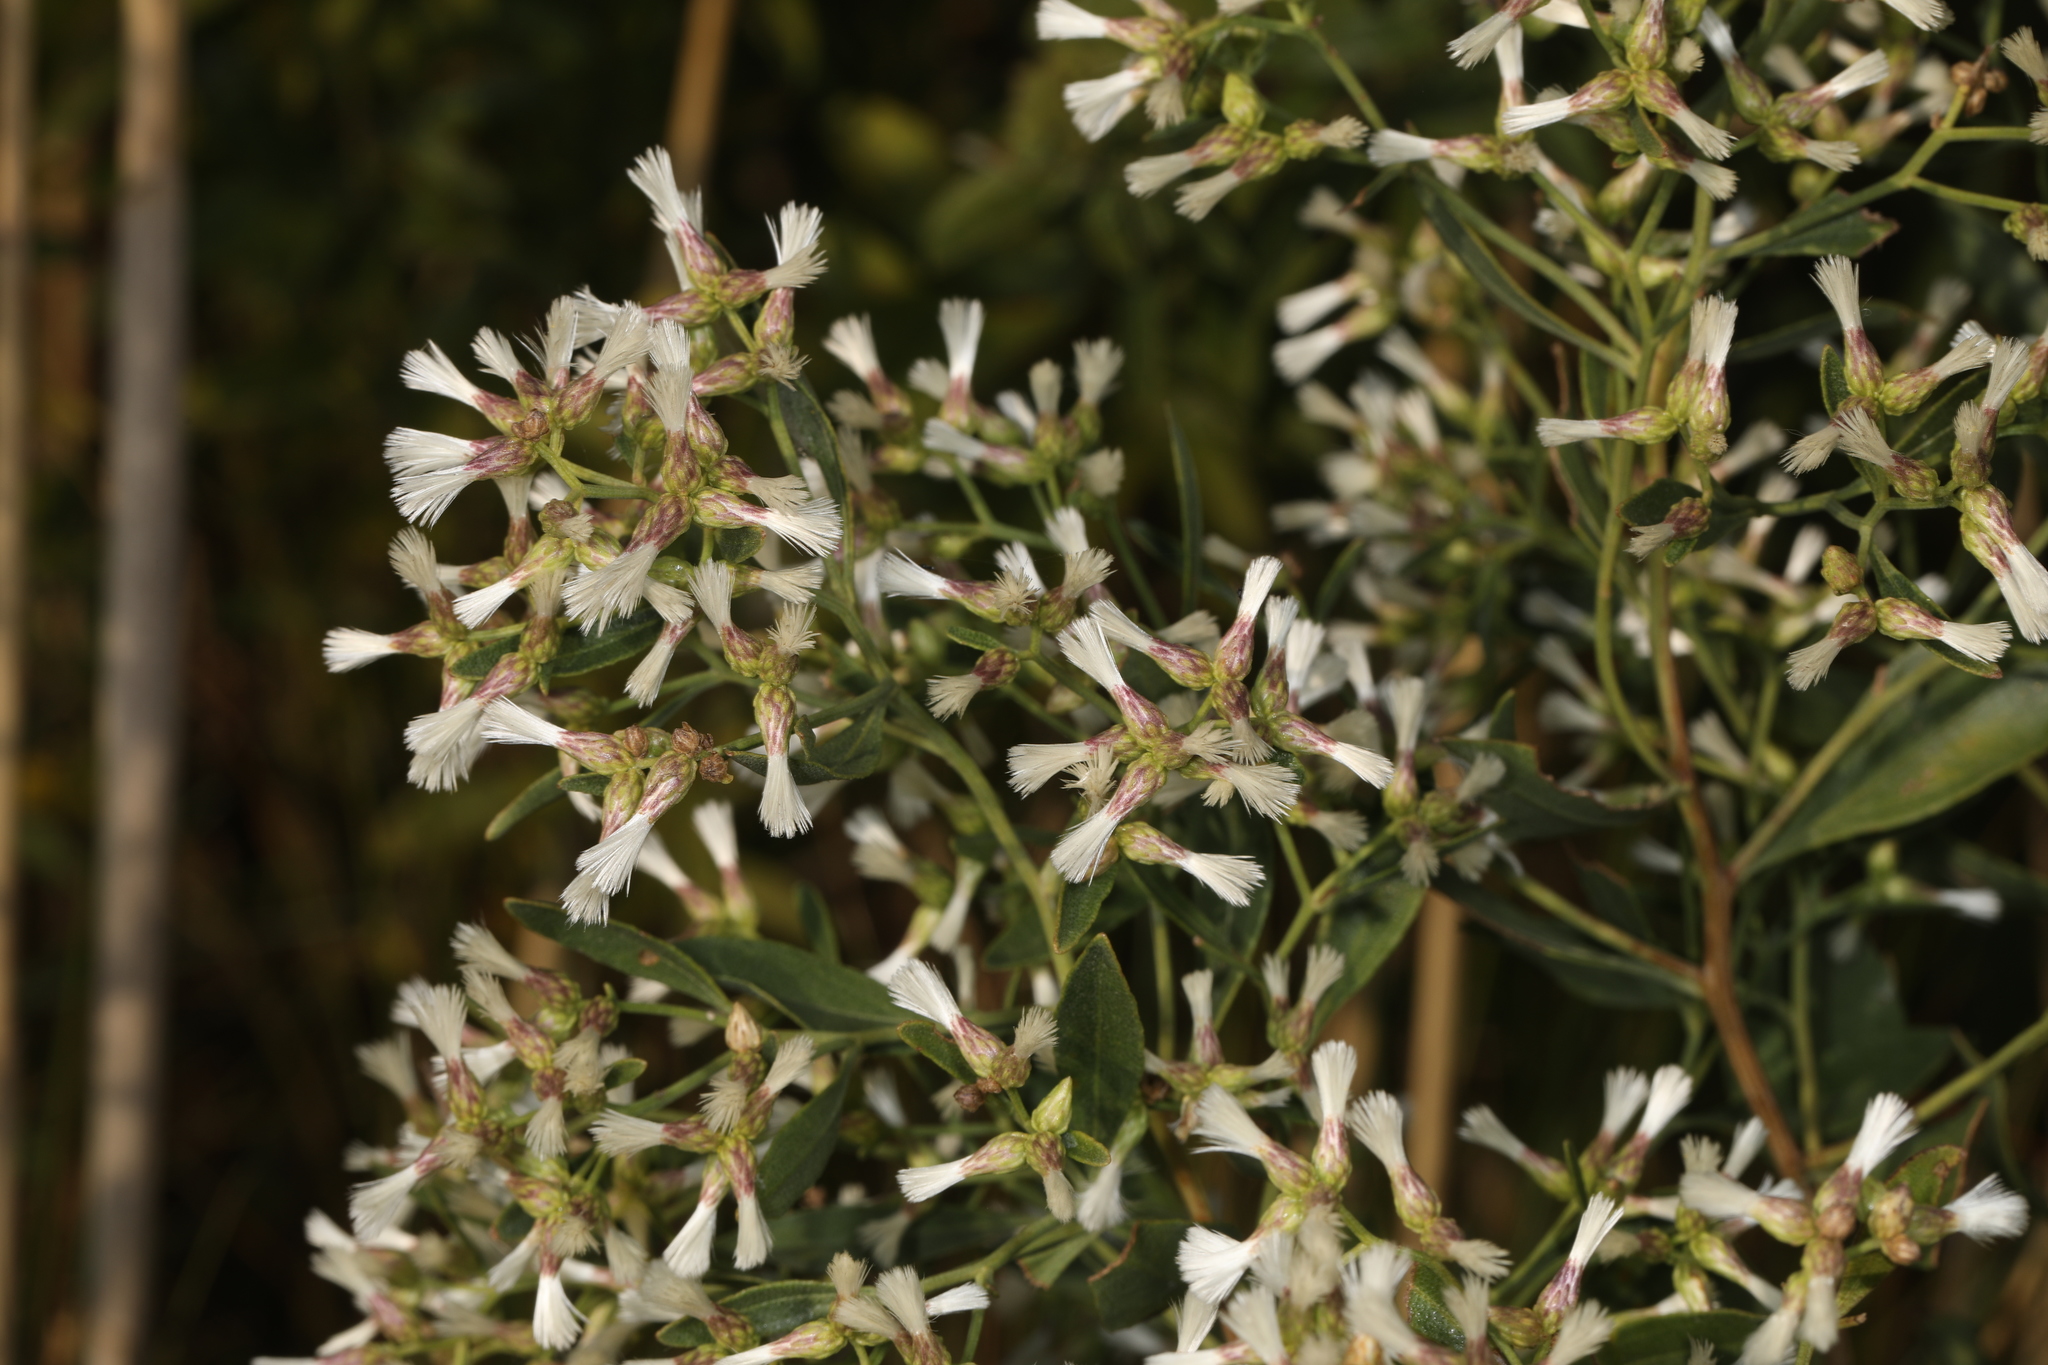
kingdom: Plantae
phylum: Tracheophyta
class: Magnoliopsida
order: Asterales
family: Asteraceae
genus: Baccharis
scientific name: Baccharis halimifolia
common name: Eastern baccharis
